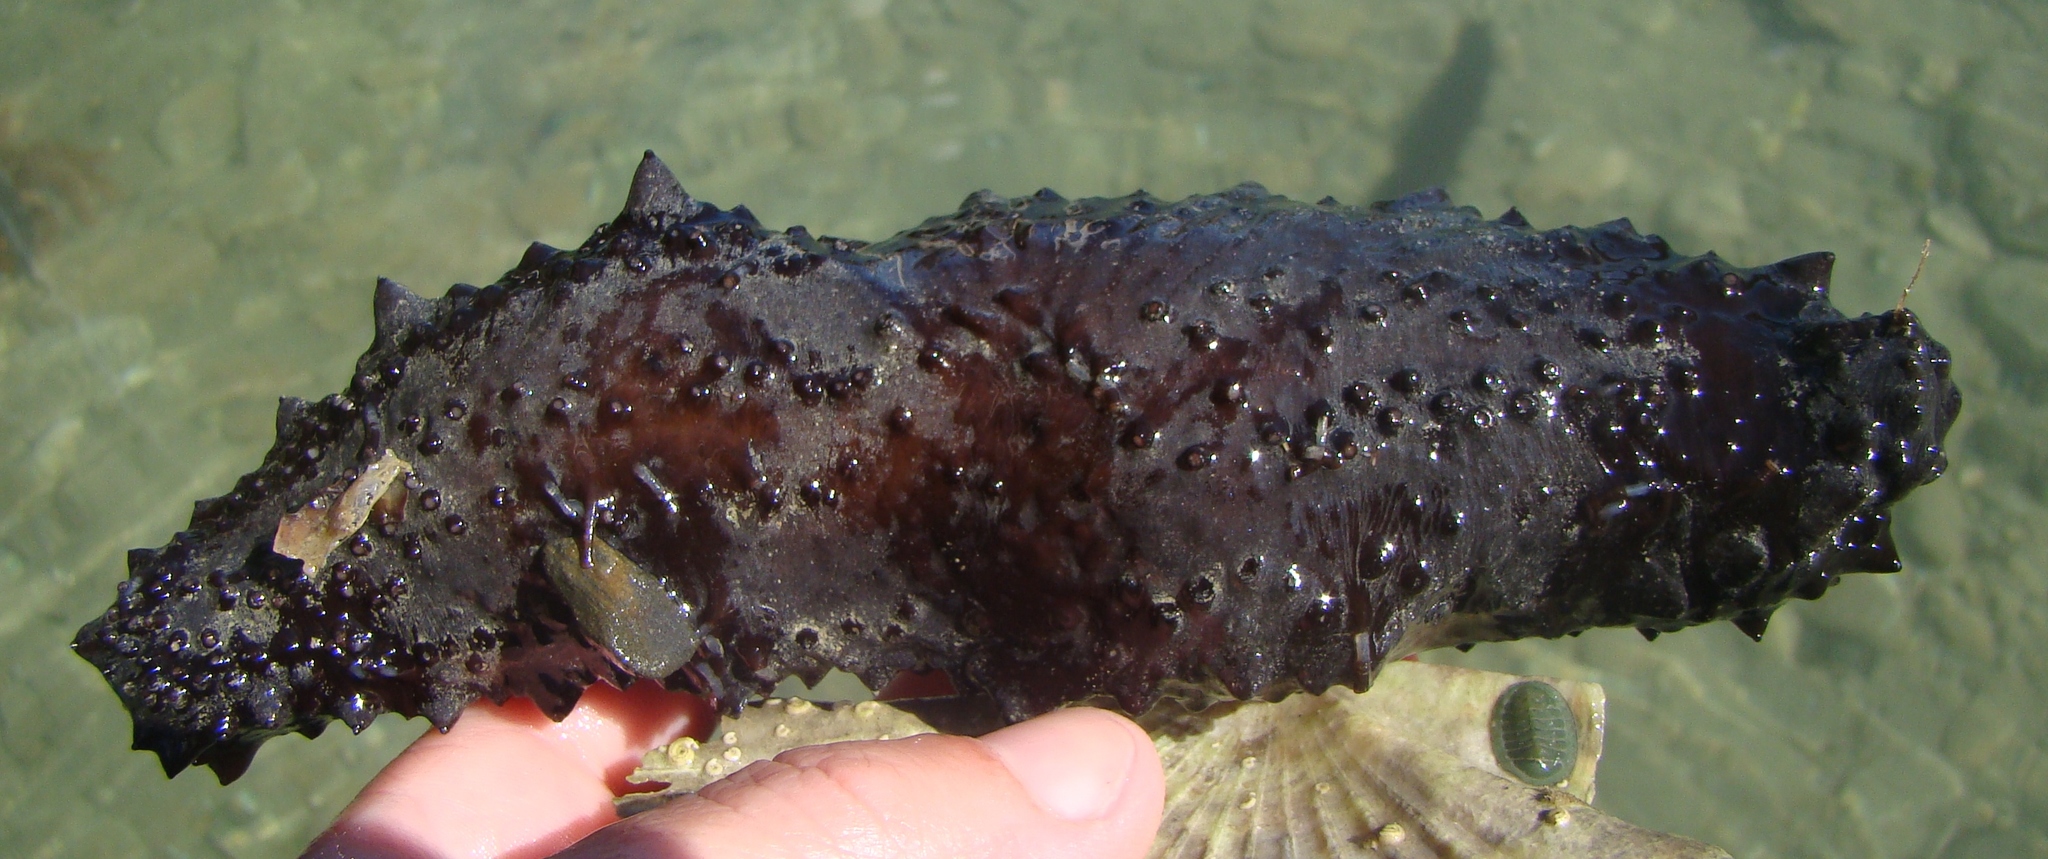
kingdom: Animalia
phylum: Echinodermata
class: Holothuroidea
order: Synallactida
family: Stichopodidae
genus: Australostichopus
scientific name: Australostichopus mollis
